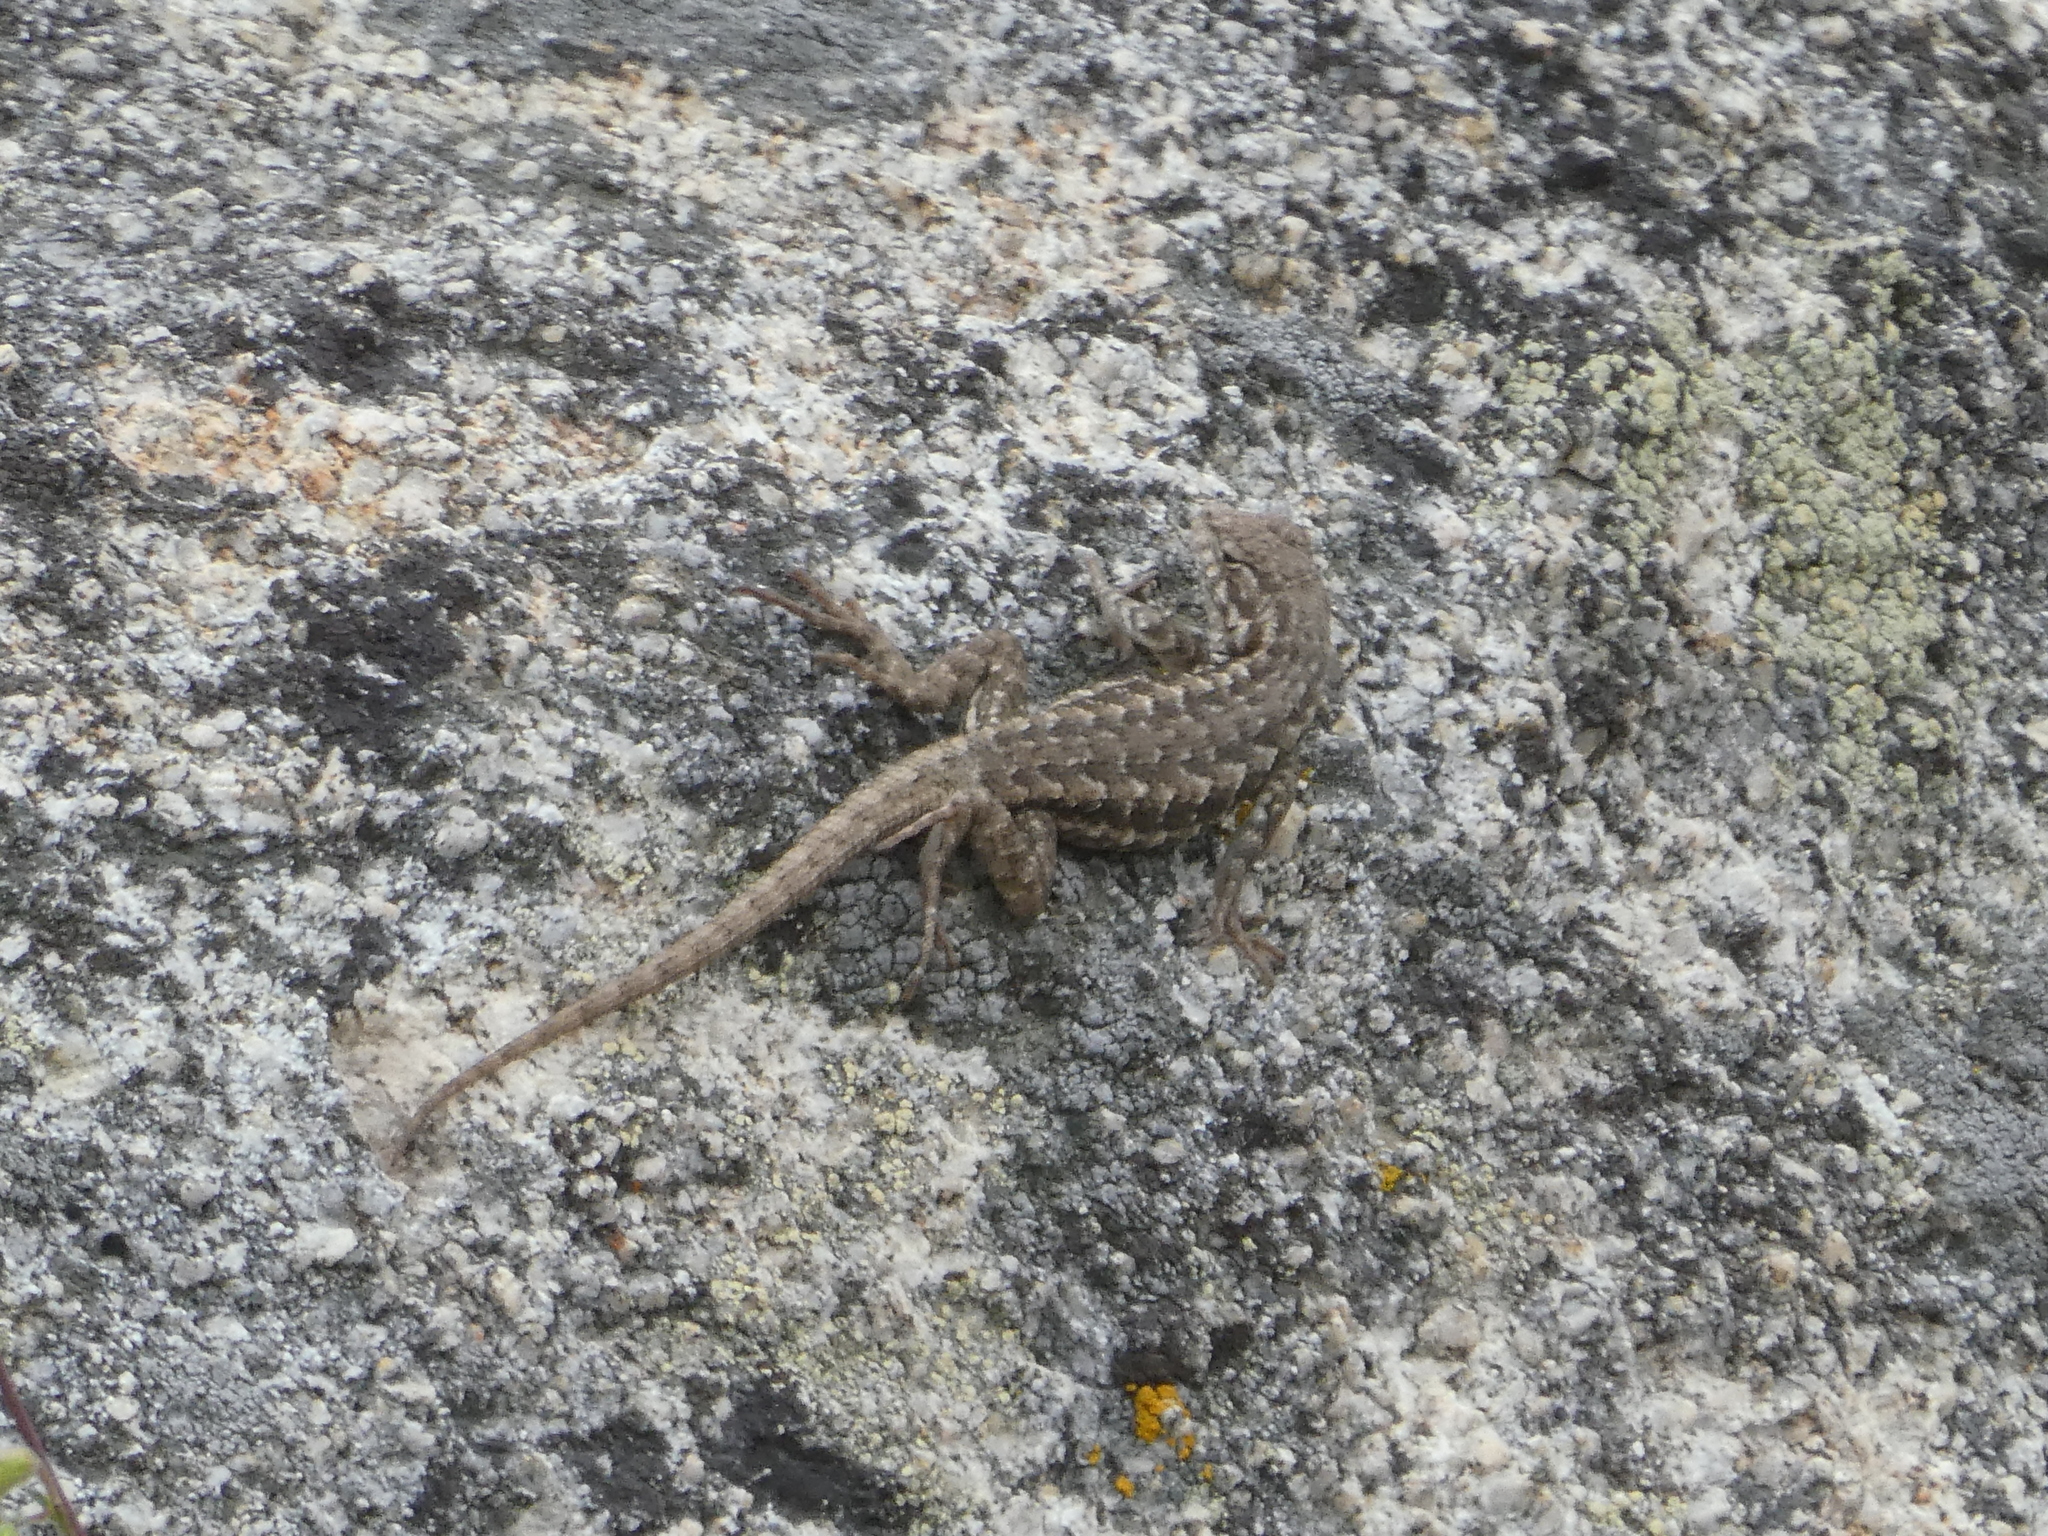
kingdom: Animalia
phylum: Chordata
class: Squamata
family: Phrynosomatidae
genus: Sceloporus
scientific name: Sceloporus occidentalis
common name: Western fence lizard
